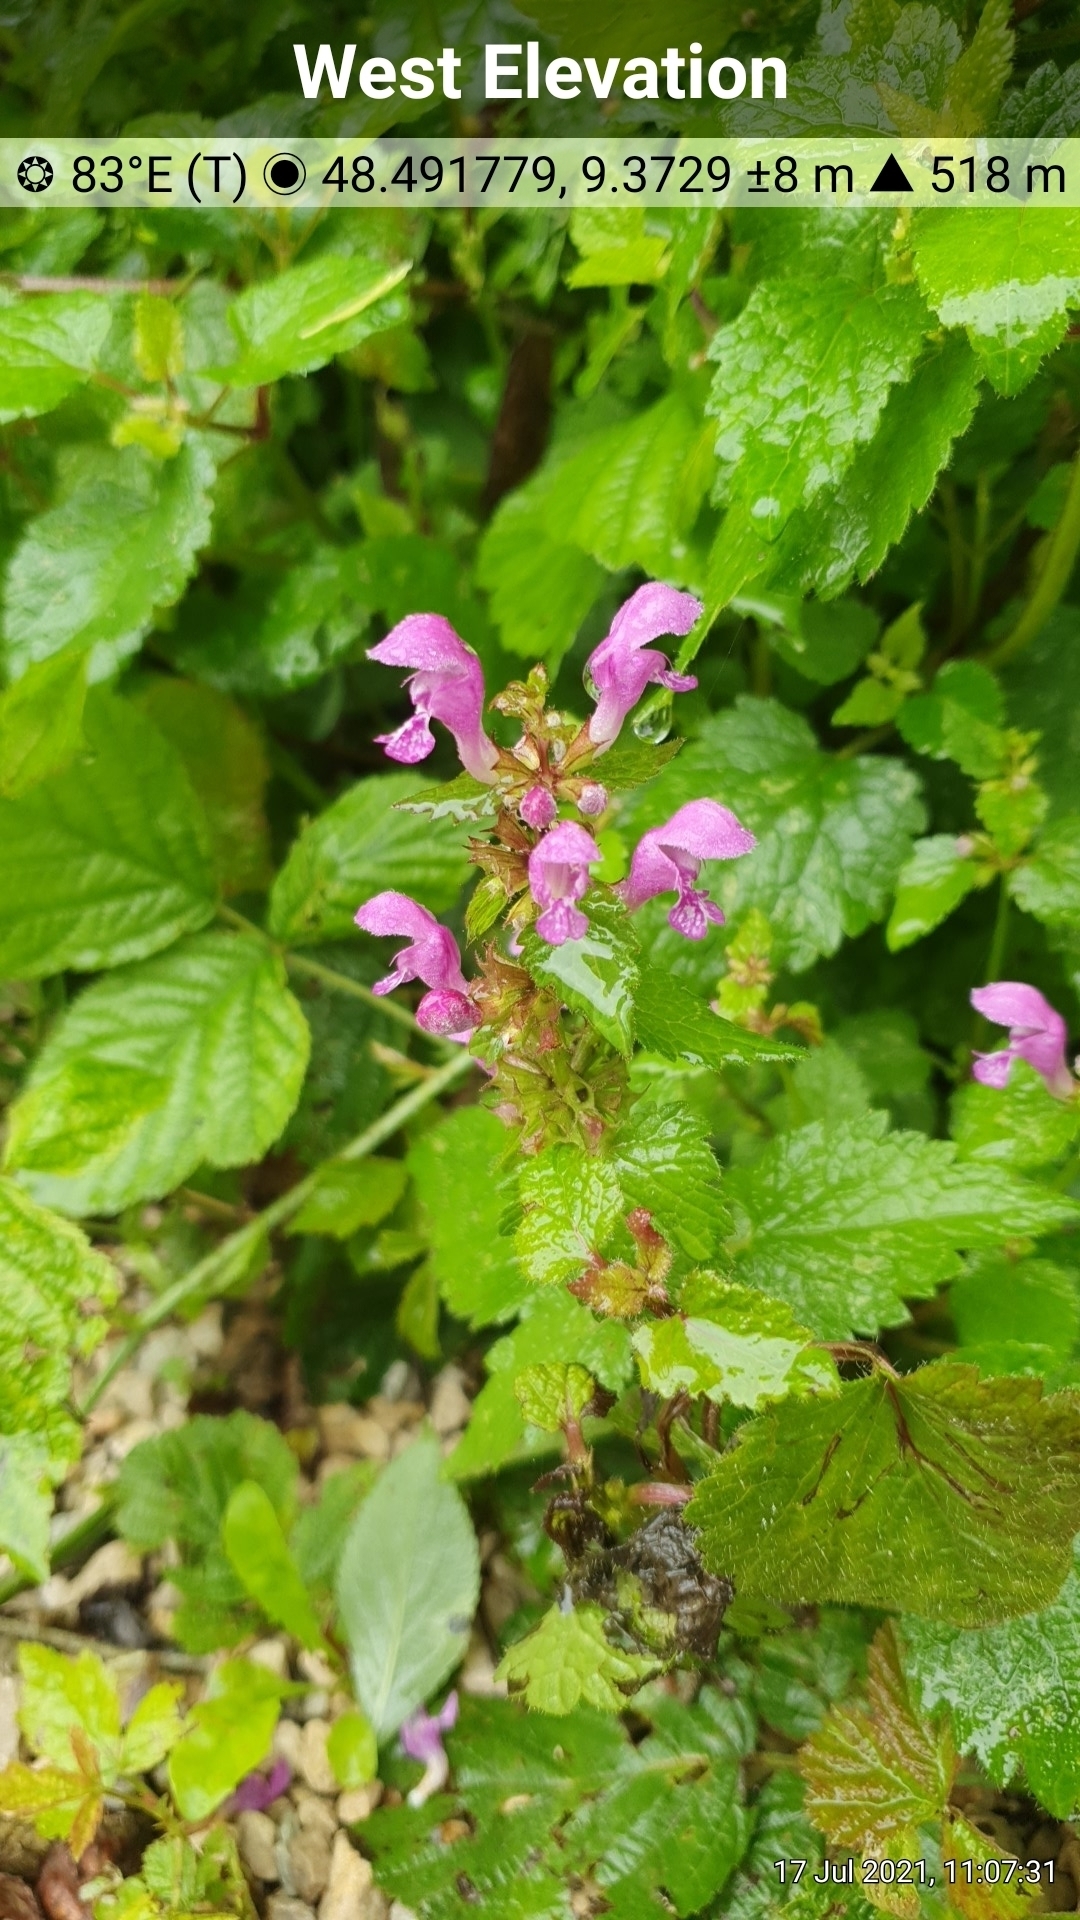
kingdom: Plantae
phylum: Tracheophyta
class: Magnoliopsida
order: Lamiales
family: Lamiaceae
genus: Lamium
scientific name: Lamium maculatum
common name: Spotted dead-nettle
